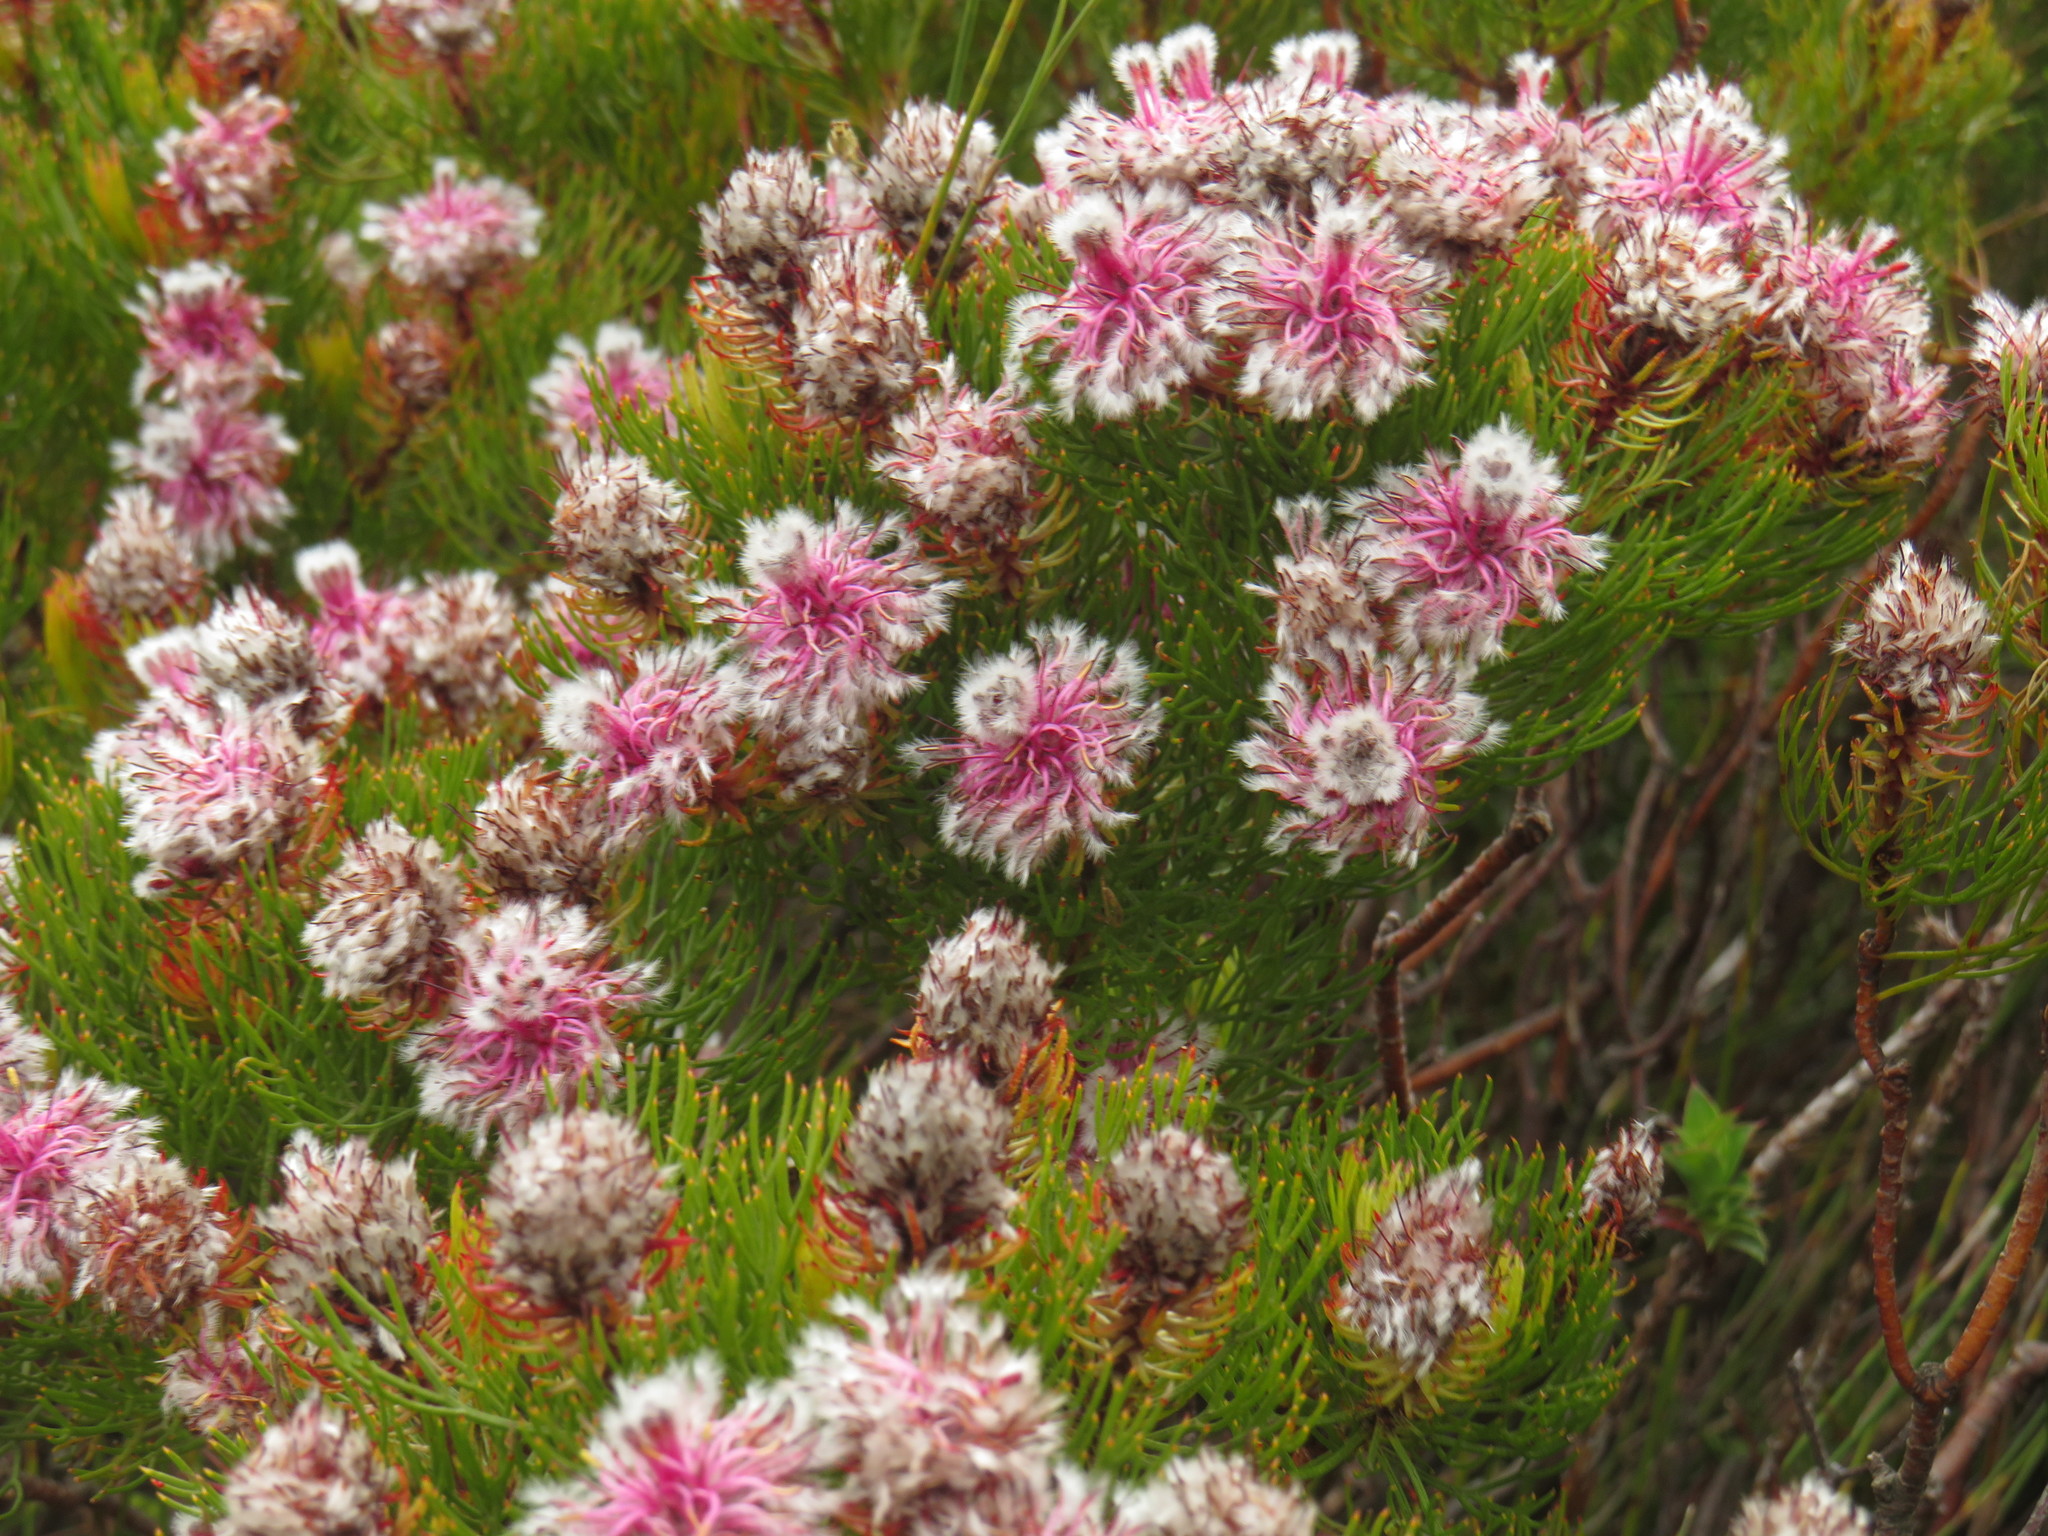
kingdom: Plantae
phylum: Tracheophyta
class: Magnoliopsida
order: Proteales
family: Proteaceae
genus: Serruria
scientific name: Serruria phylicoides
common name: Bearded spiderhead
